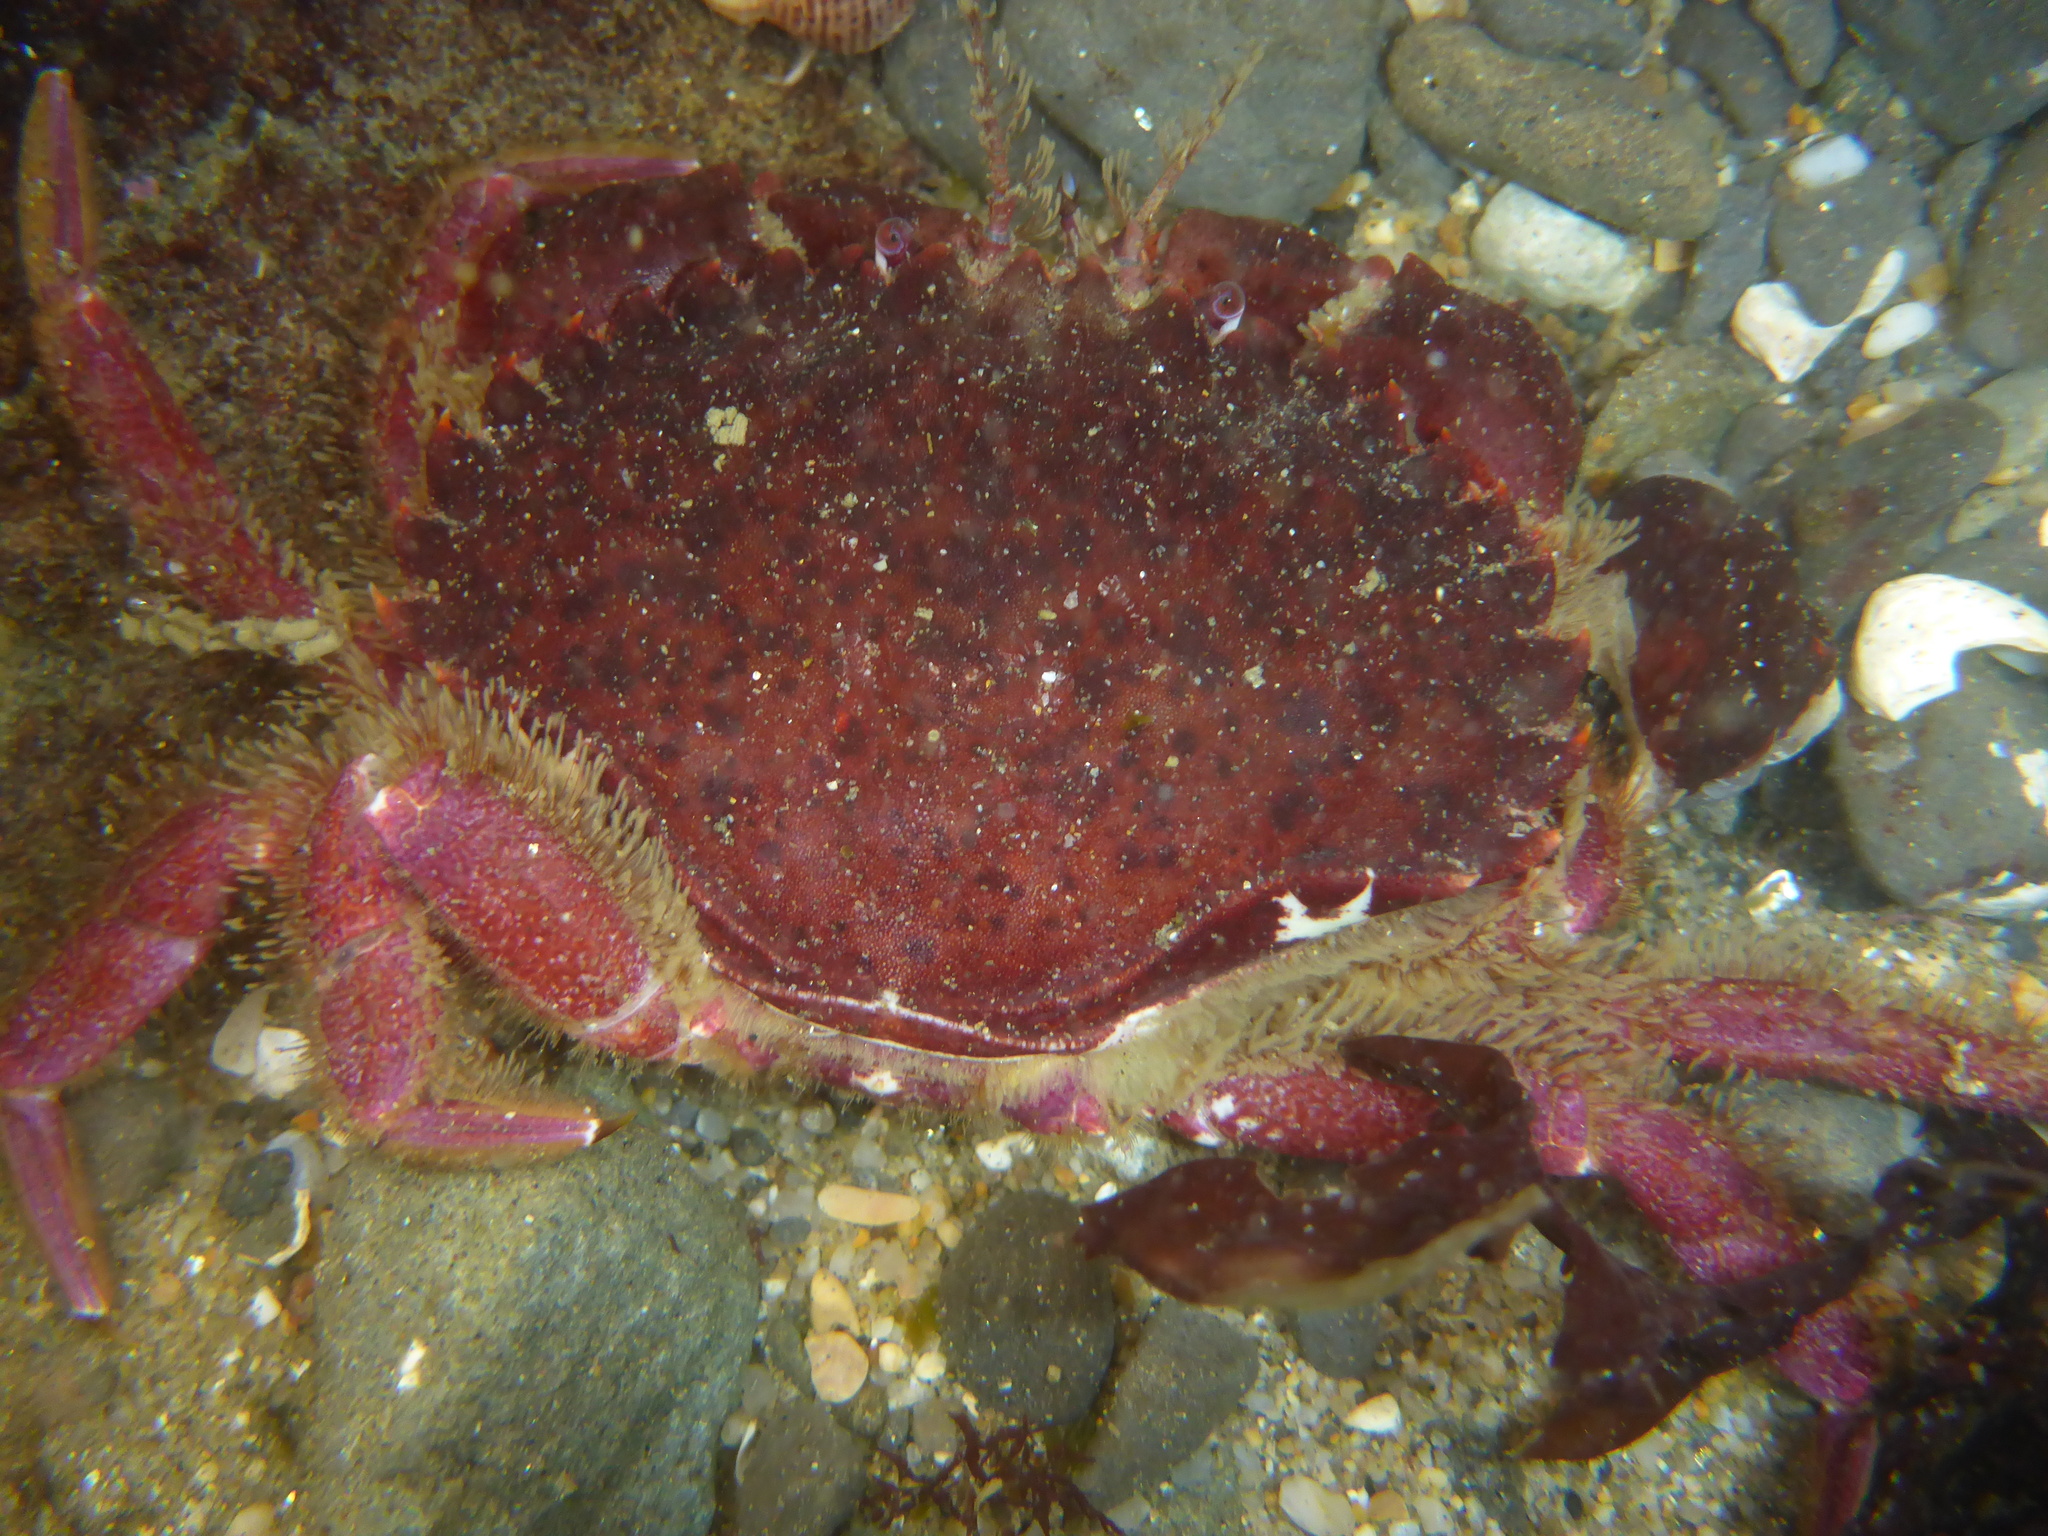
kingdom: Animalia
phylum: Arthropoda
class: Malacostraca
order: Decapoda
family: Cancridae
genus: Romaleon
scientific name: Romaleon antennarium
